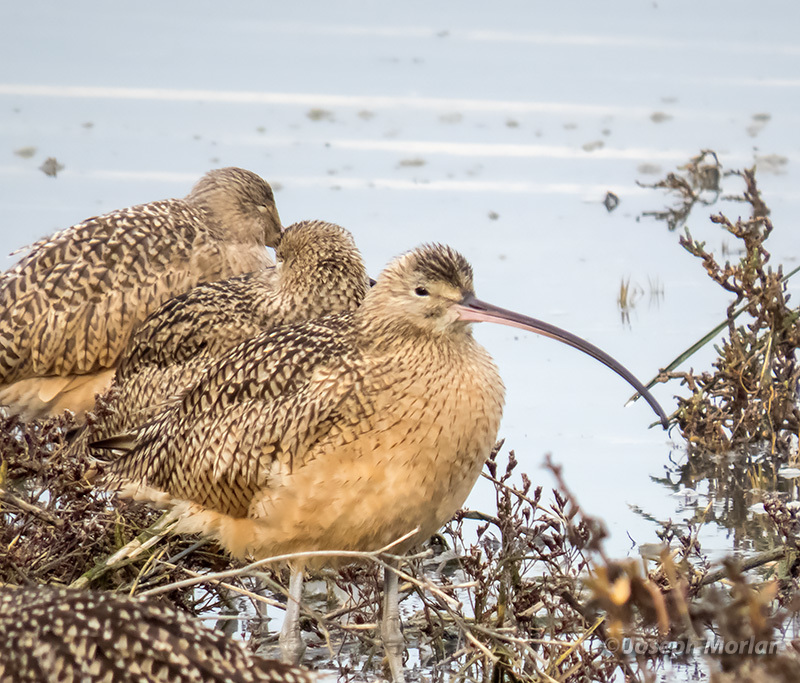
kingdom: Animalia
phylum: Chordata
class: Aves
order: Charadriiformes
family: Scolopacidae
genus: Numenius
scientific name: Numenius americanus
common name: Long-billed curlew
